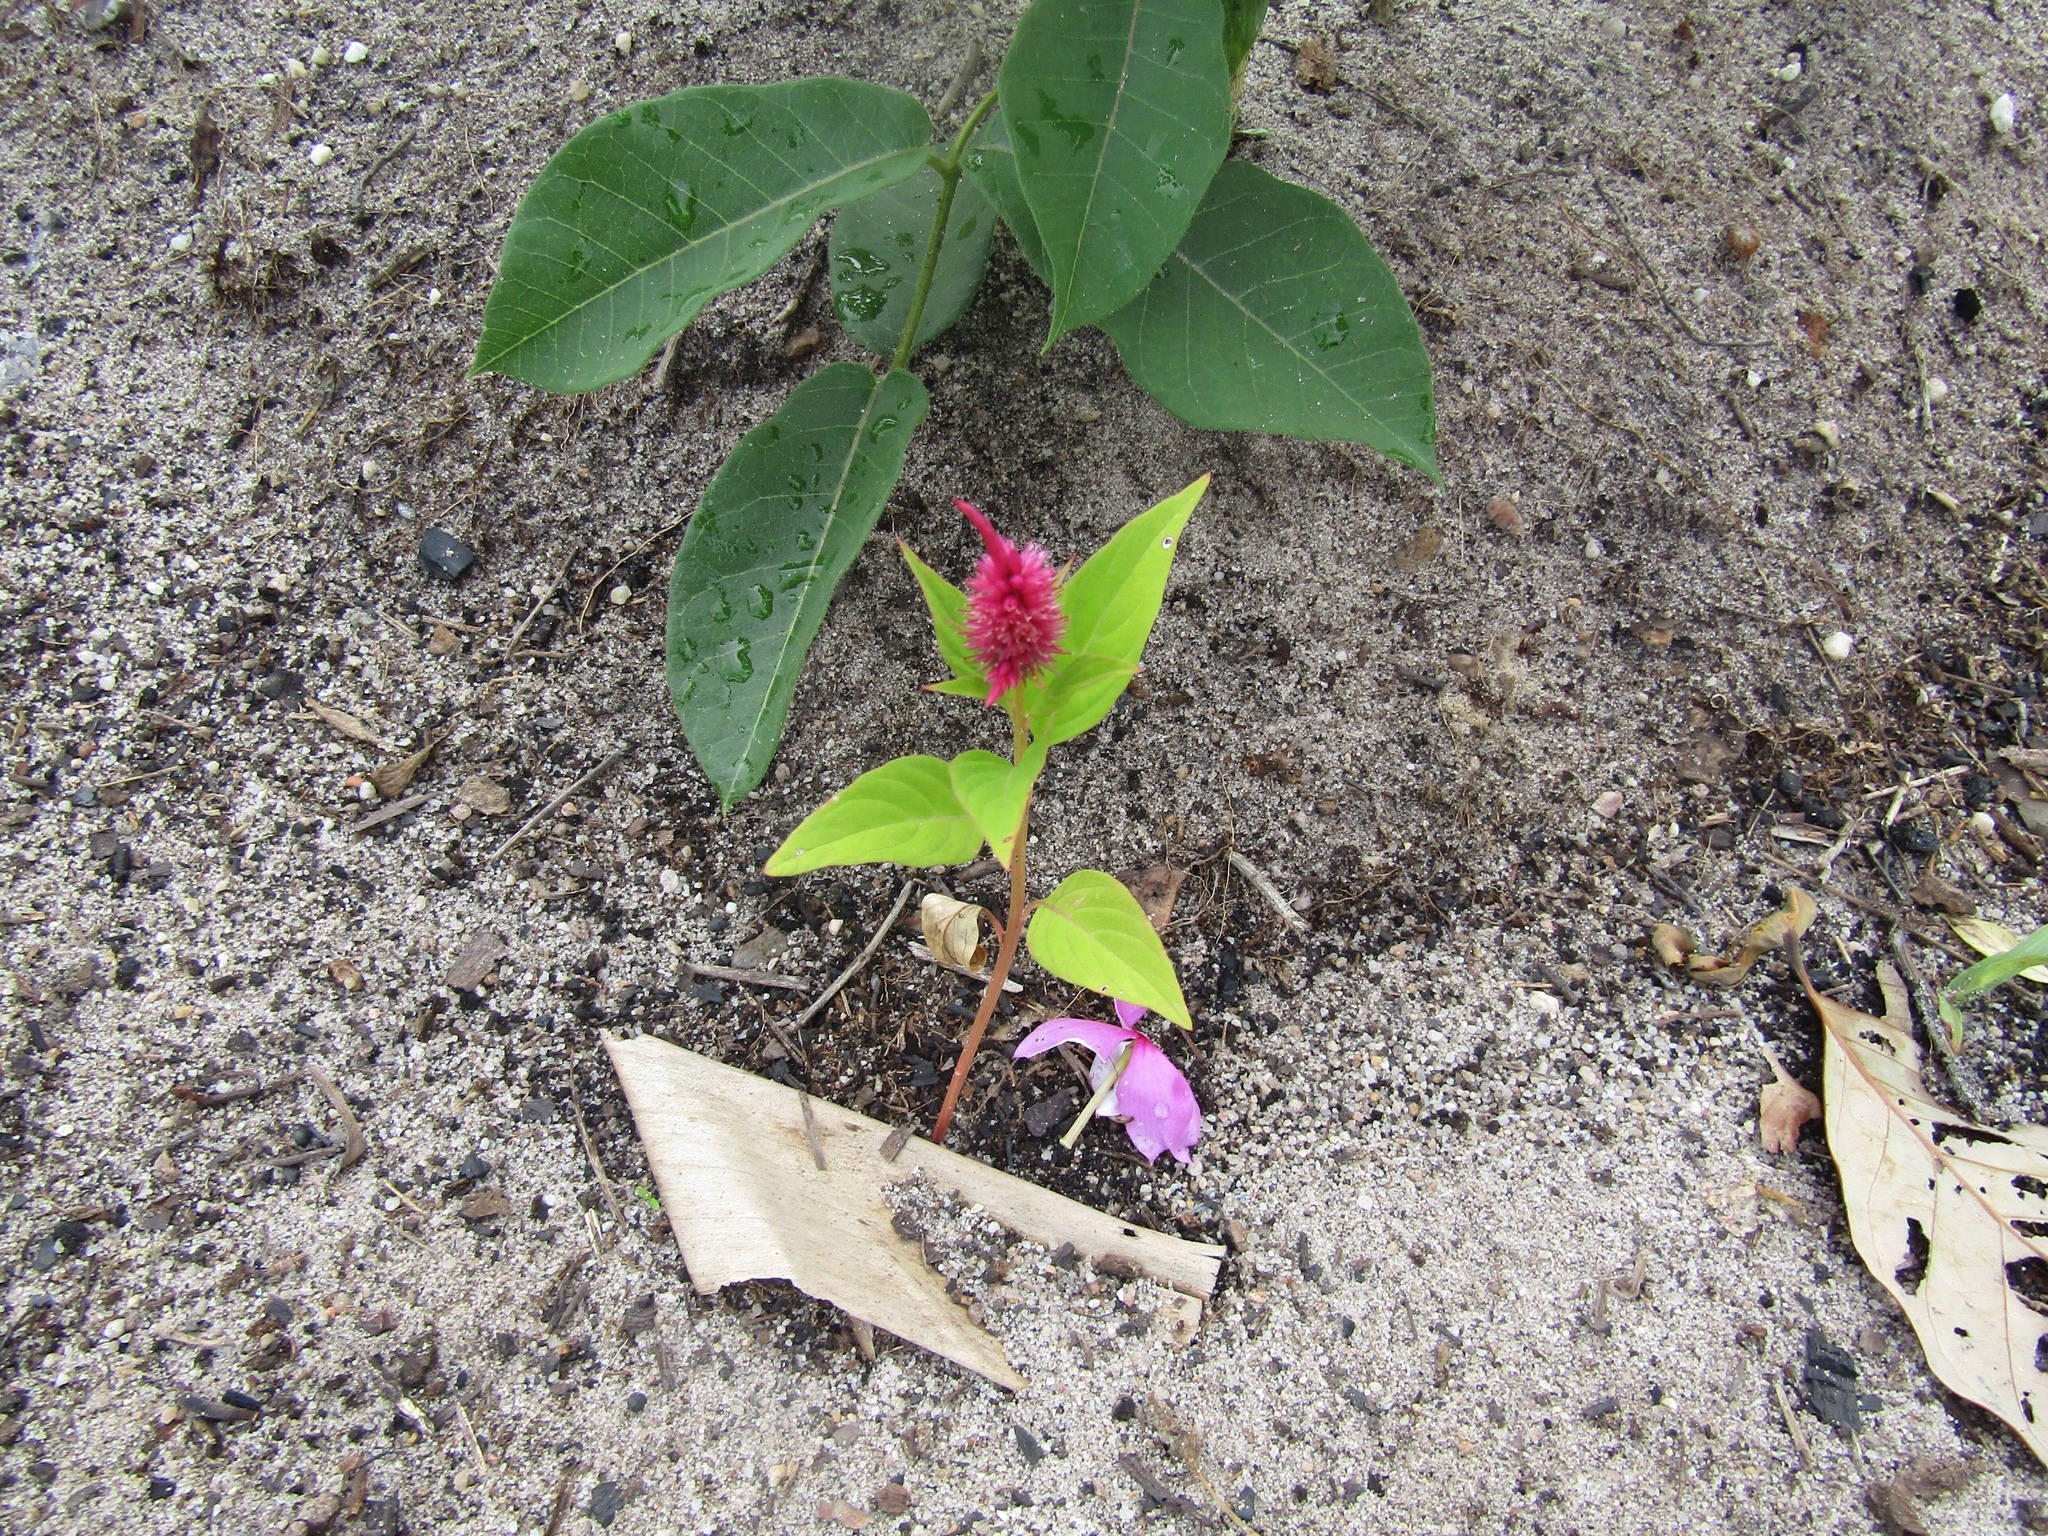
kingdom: Plantae
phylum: Tracheophyta
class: Magnoliopsida
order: Caryophyllales
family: Amaranthaceae
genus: Celosia
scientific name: Celosia argentea
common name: Feather cockscomb
